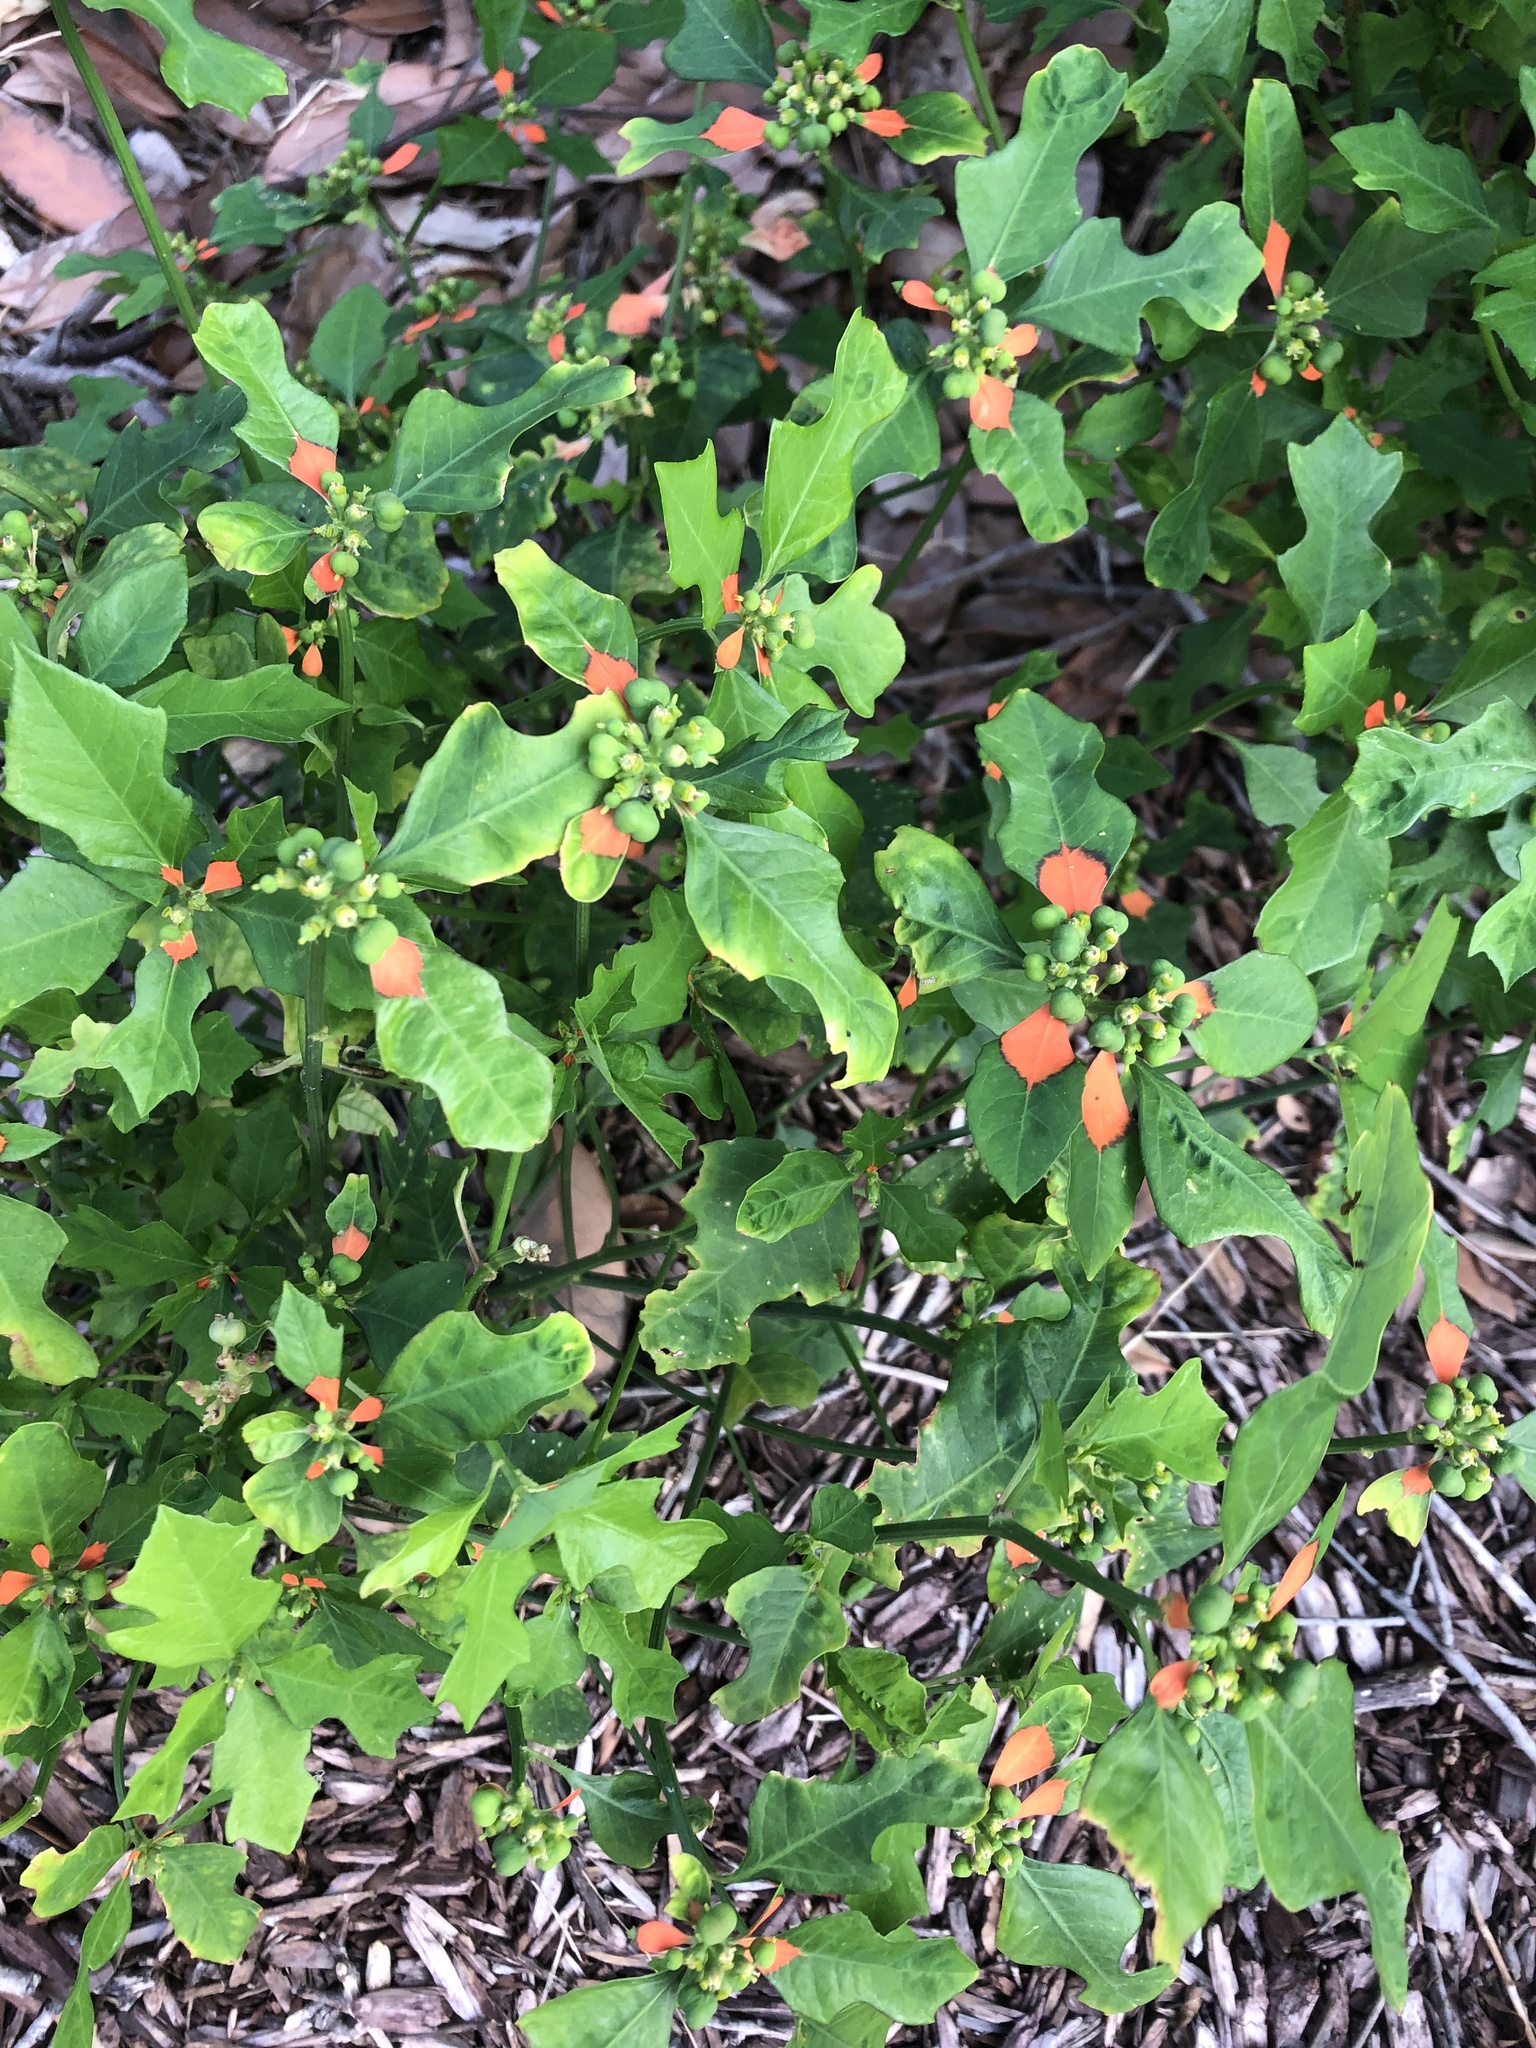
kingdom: Plantae
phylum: Tracheophyta
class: Magnoliopsida
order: Malpighiales
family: Euphorbiaceae
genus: Euphorbia
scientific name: Euphorbia heterophylla
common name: Mexican fireplant
